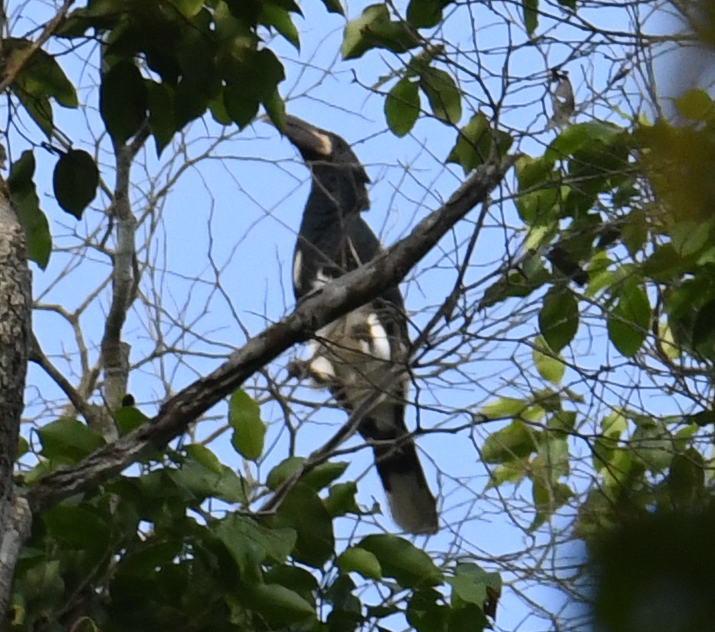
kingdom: Animalia
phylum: Chordata
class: Aves
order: Bucerotiformes
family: Bucerotidae
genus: Bycanistes
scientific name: Bycanistes fistulator
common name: Piping hornbill
